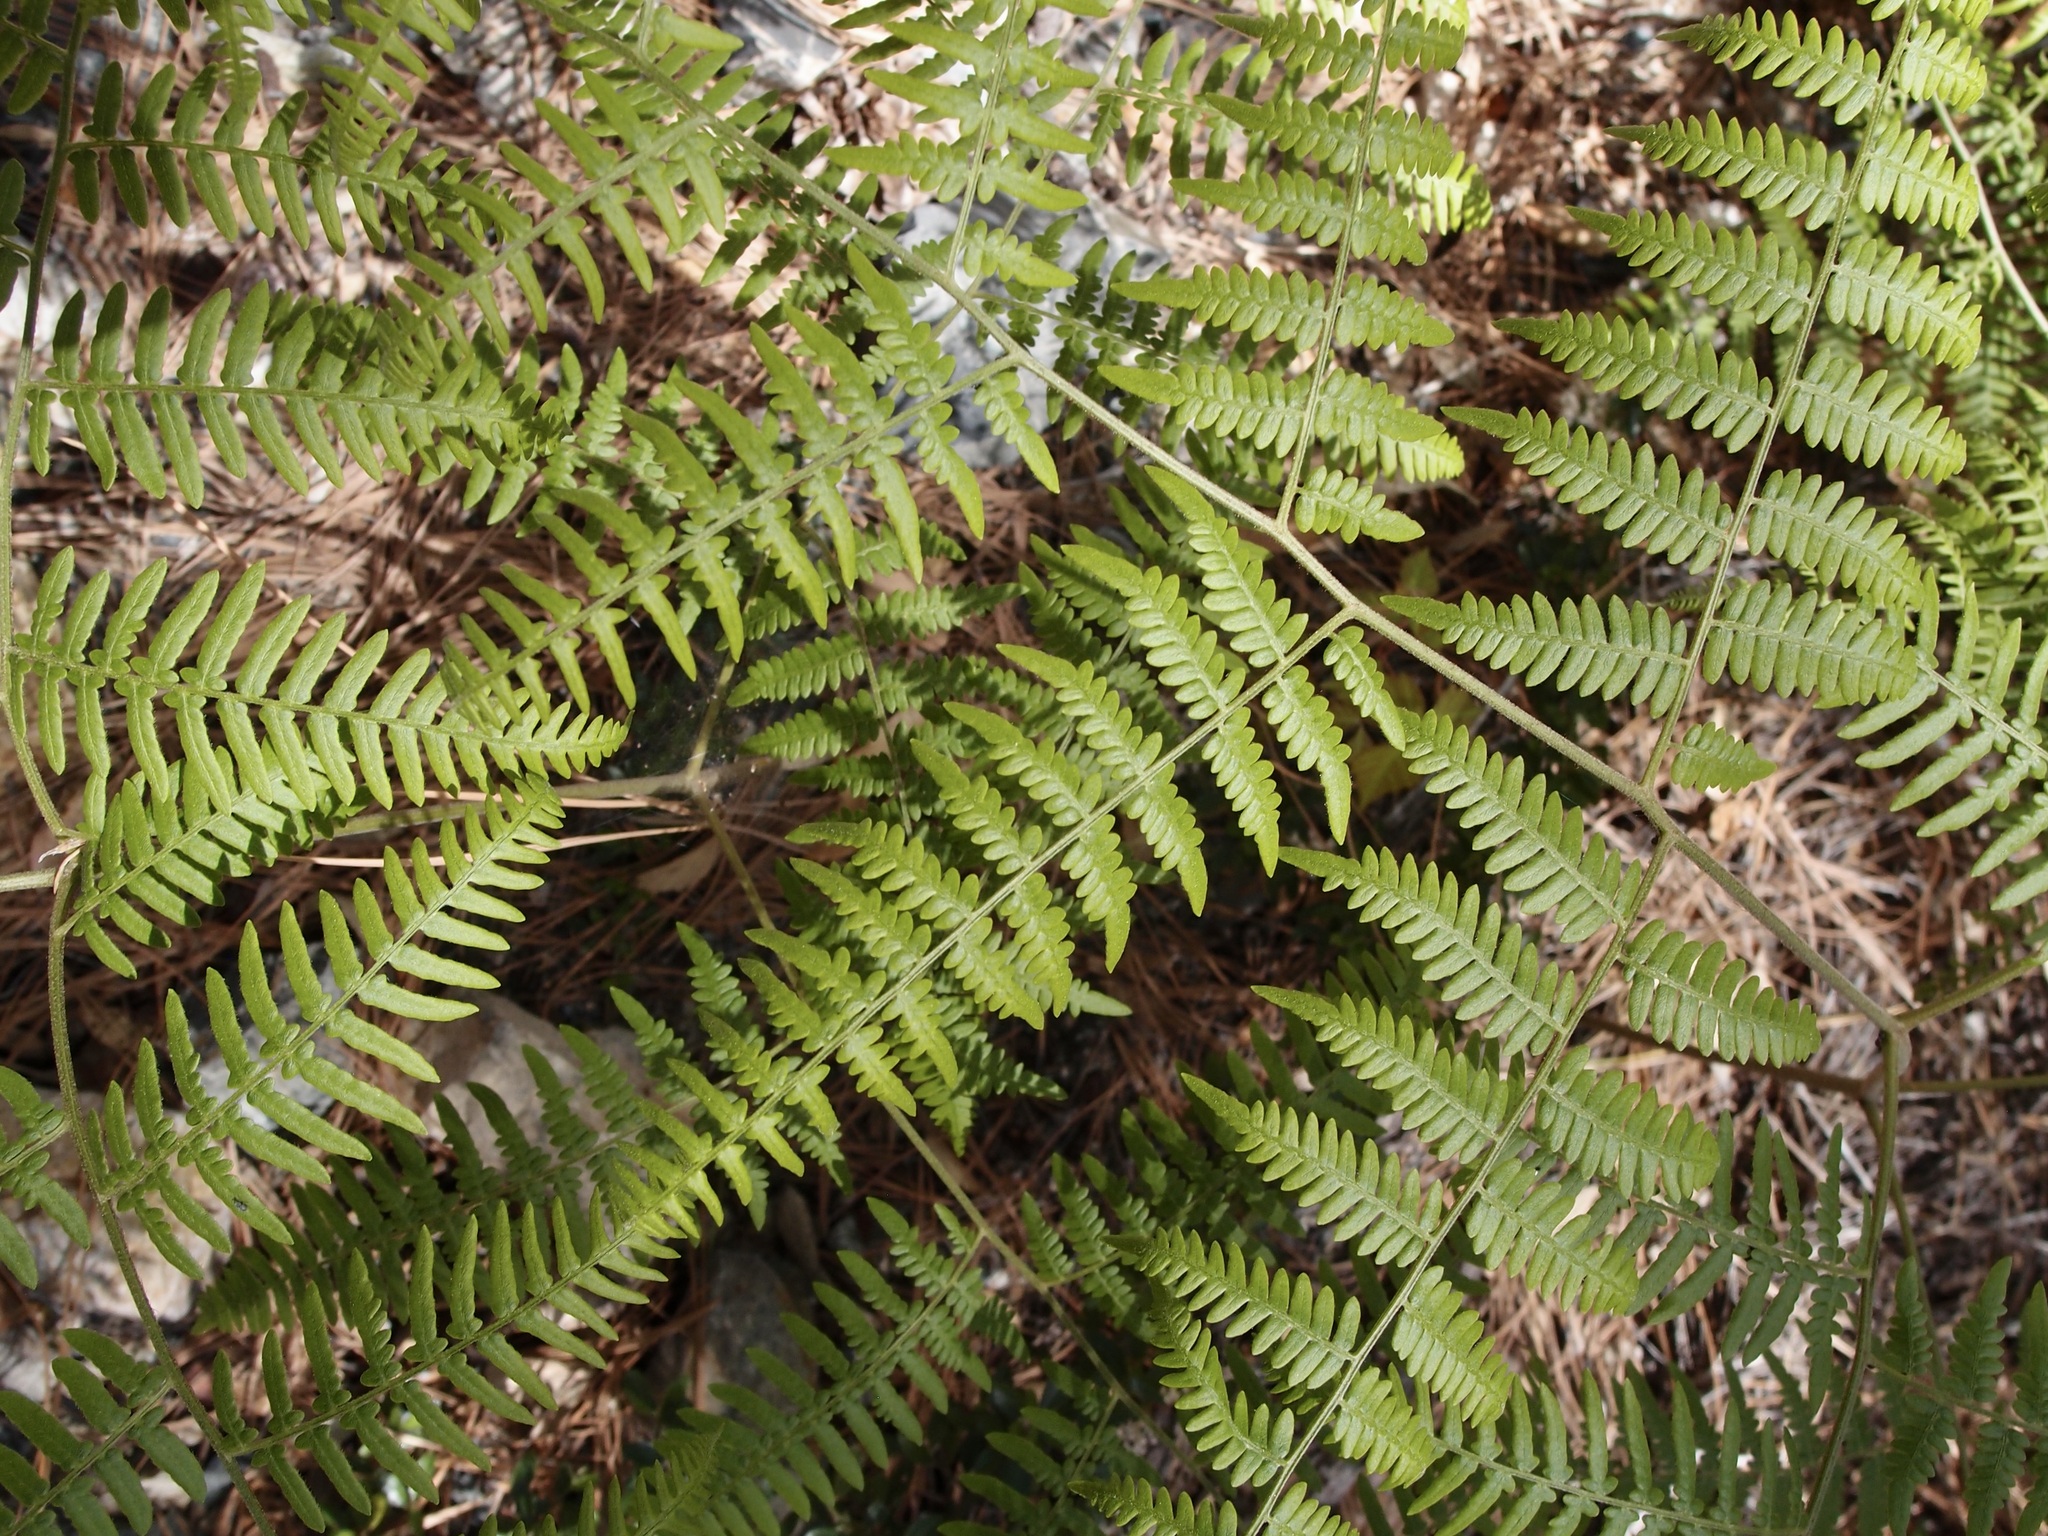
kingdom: Plantae
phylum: Tracheophyta
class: Polypodiopsida
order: Polypodiales
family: Dennstaedtiaceae
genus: Pteridium
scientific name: Pteridium aquilinum
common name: Bracken
